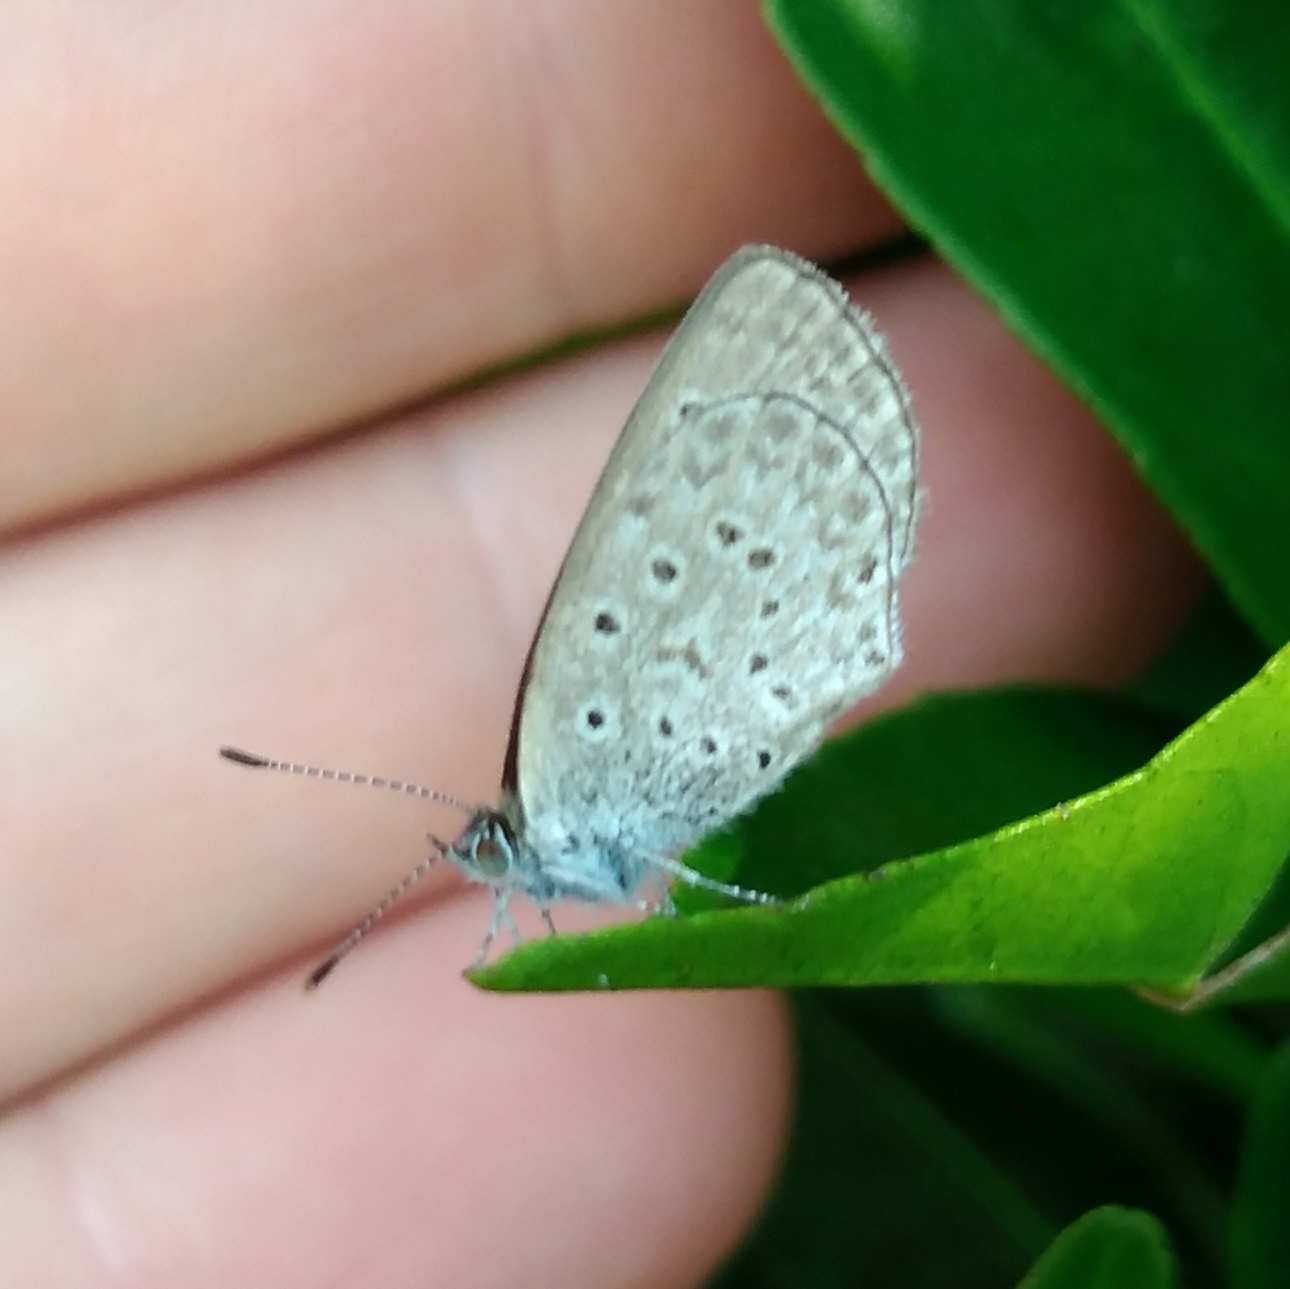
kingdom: Animalia
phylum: Arthropoda
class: Insecta
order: Lepidoptera
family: Lycaenidae
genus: Zizeeria
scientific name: Zizeeria knysna
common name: African grass blue
